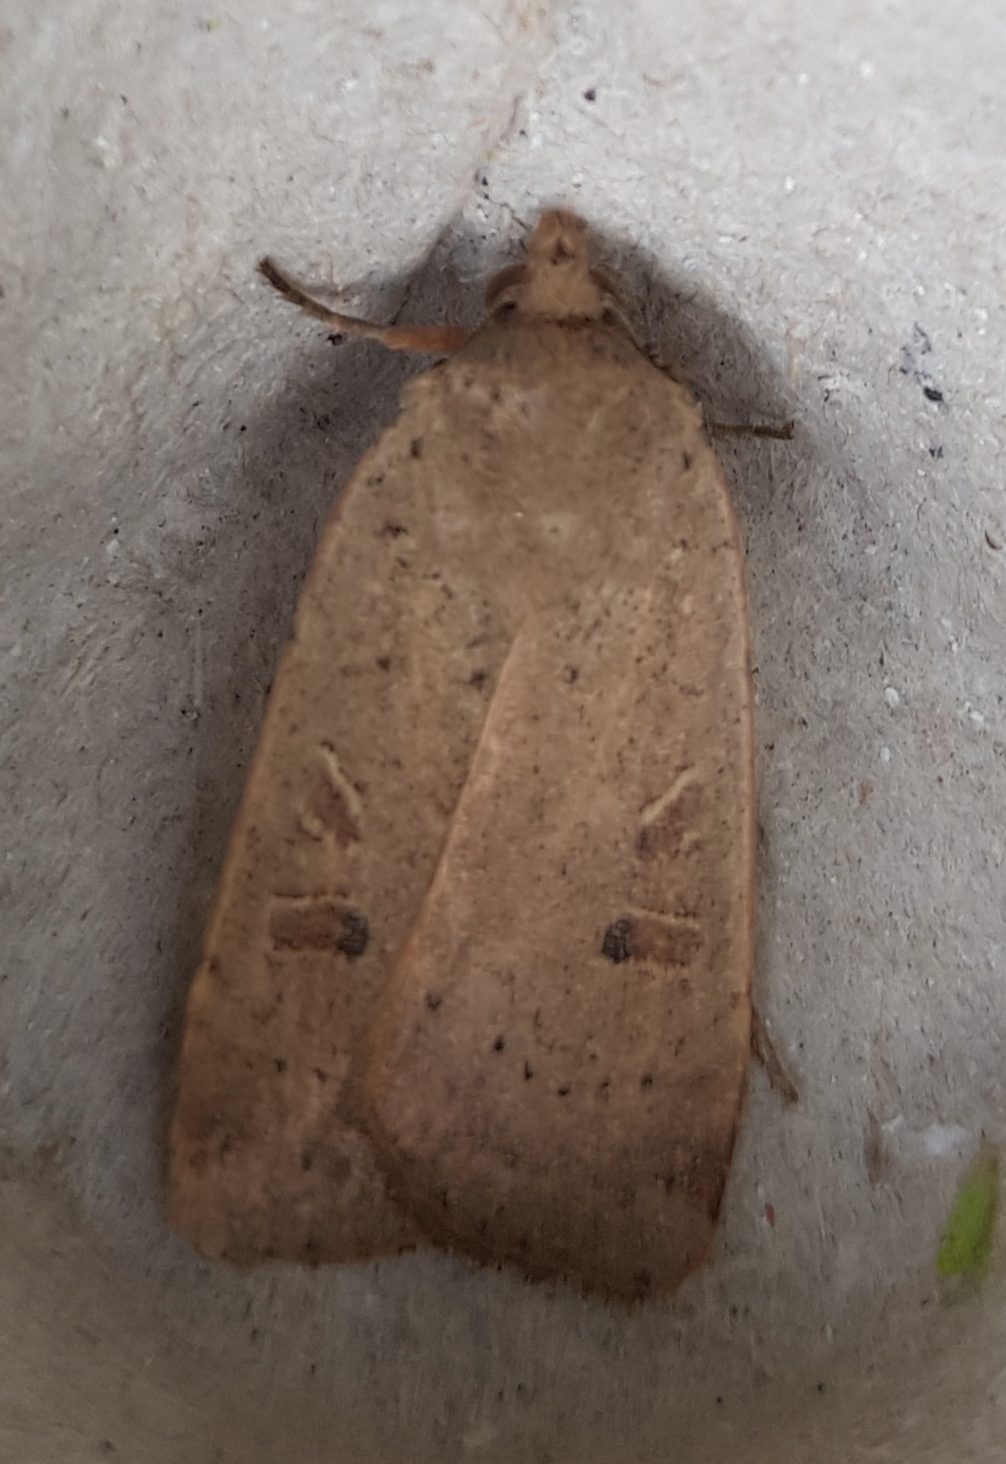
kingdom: Animalia
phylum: Arthropoda
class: Insecta
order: Lepidoptera
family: Noctuidae
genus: Noctua
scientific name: Noctua comes
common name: Lesser yellow underwing
